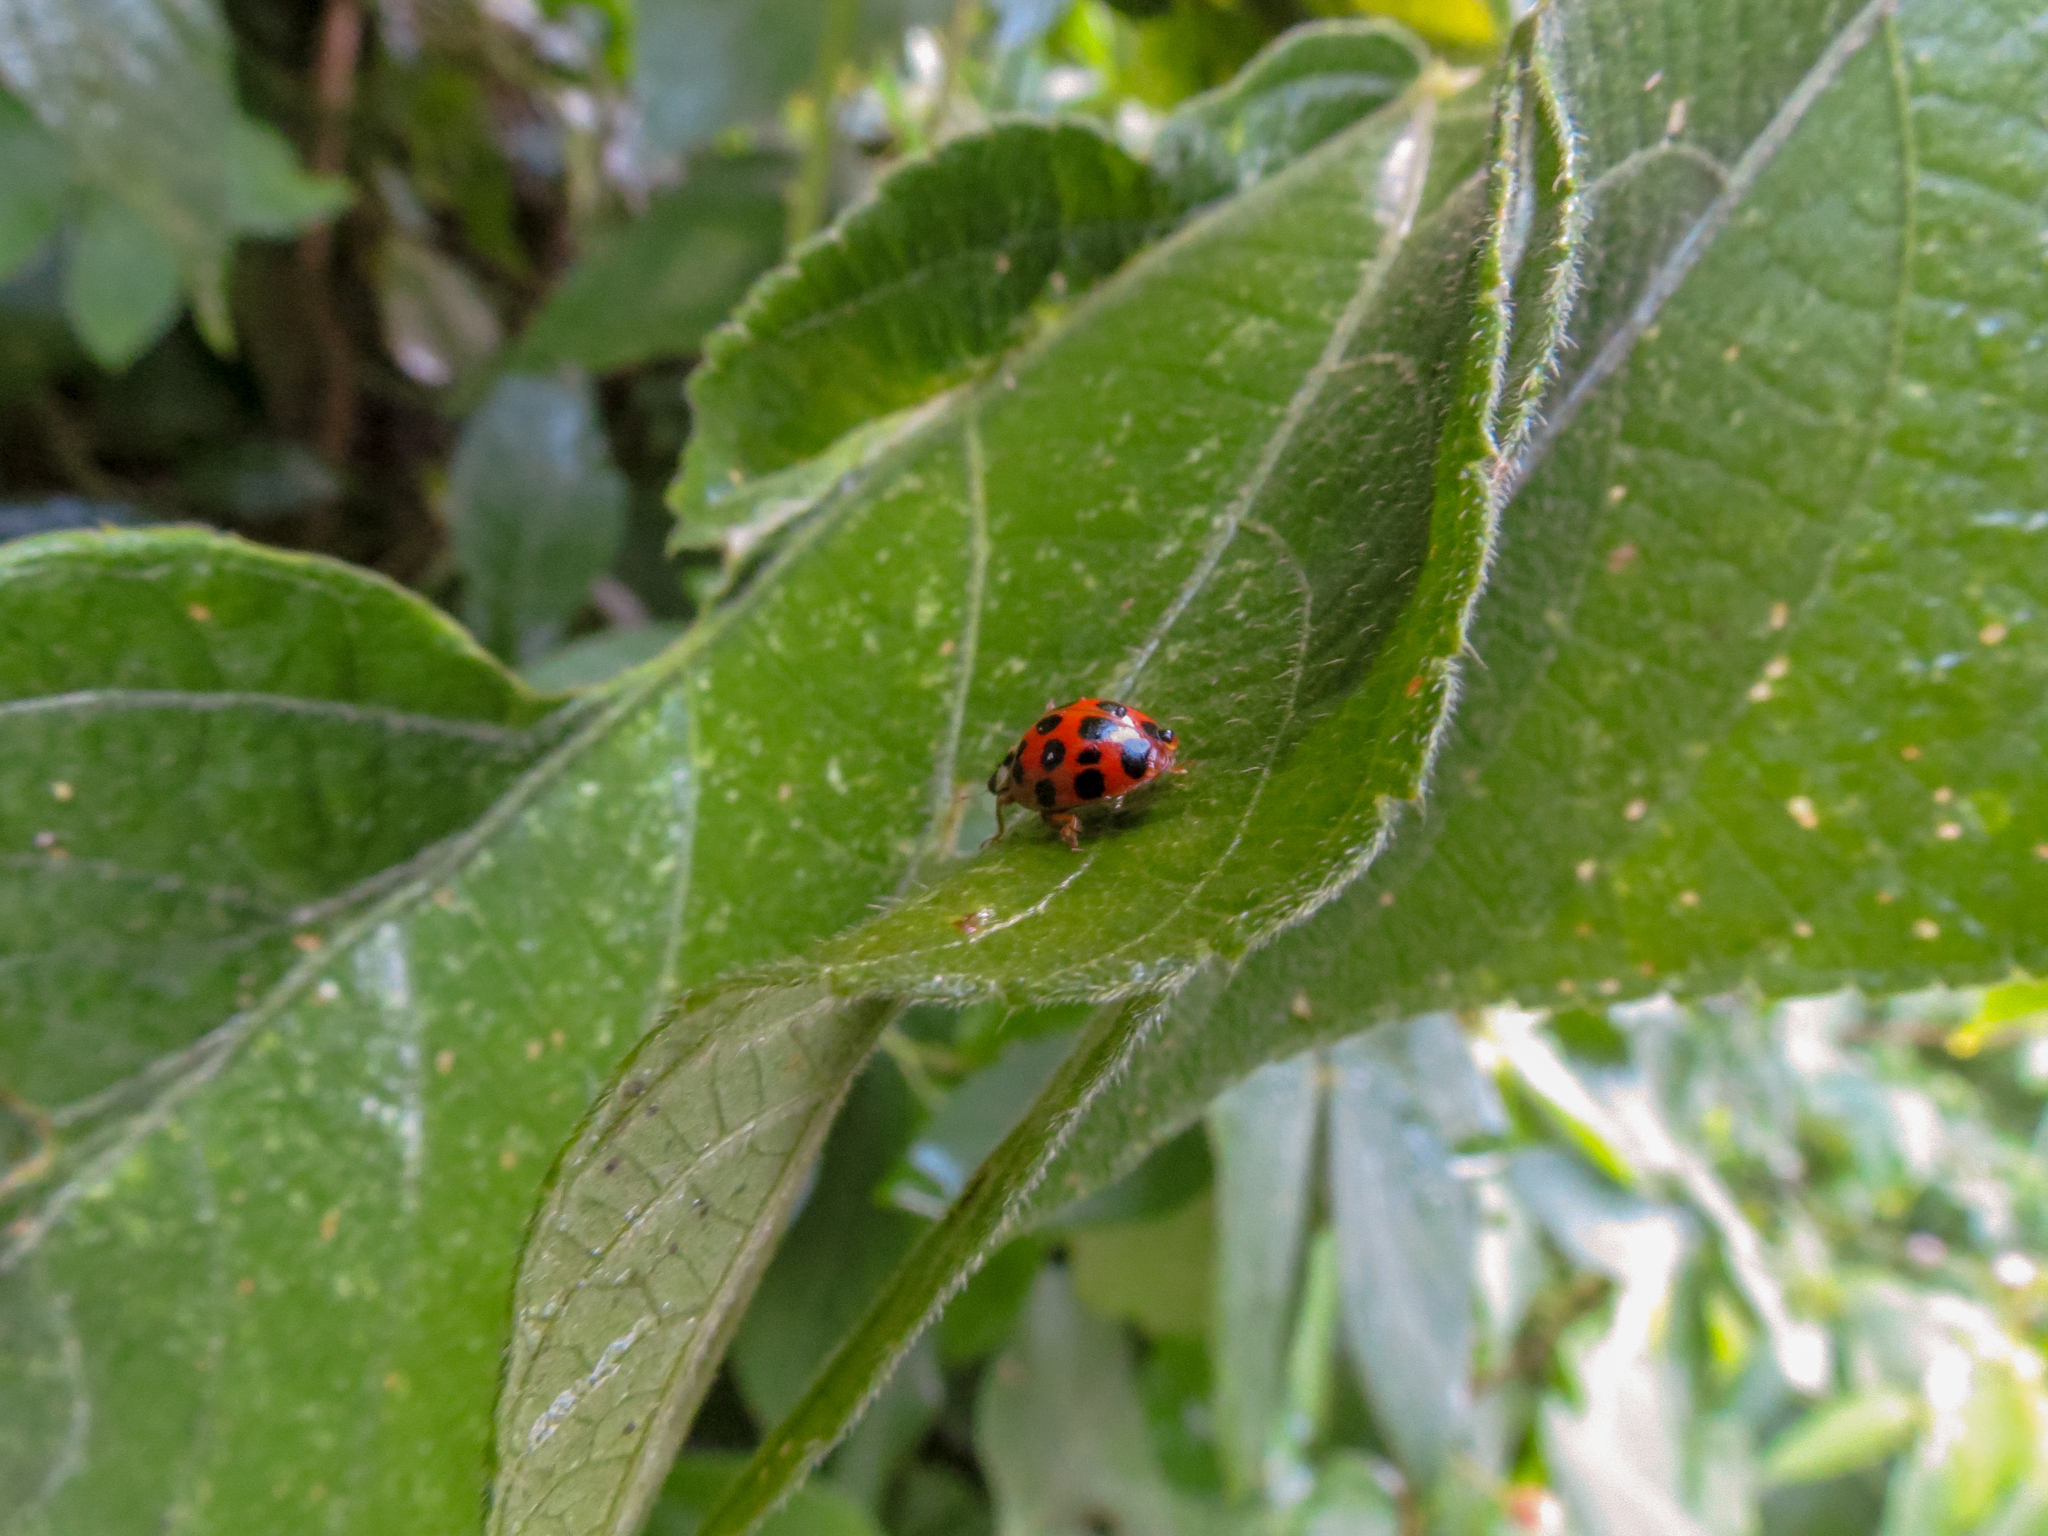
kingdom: Animalia
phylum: Arthropoda
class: Insecta
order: Coleoptera
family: Coccinellidae
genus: Harmonia
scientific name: Harmonia axyridis
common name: Harlequin ladybird
